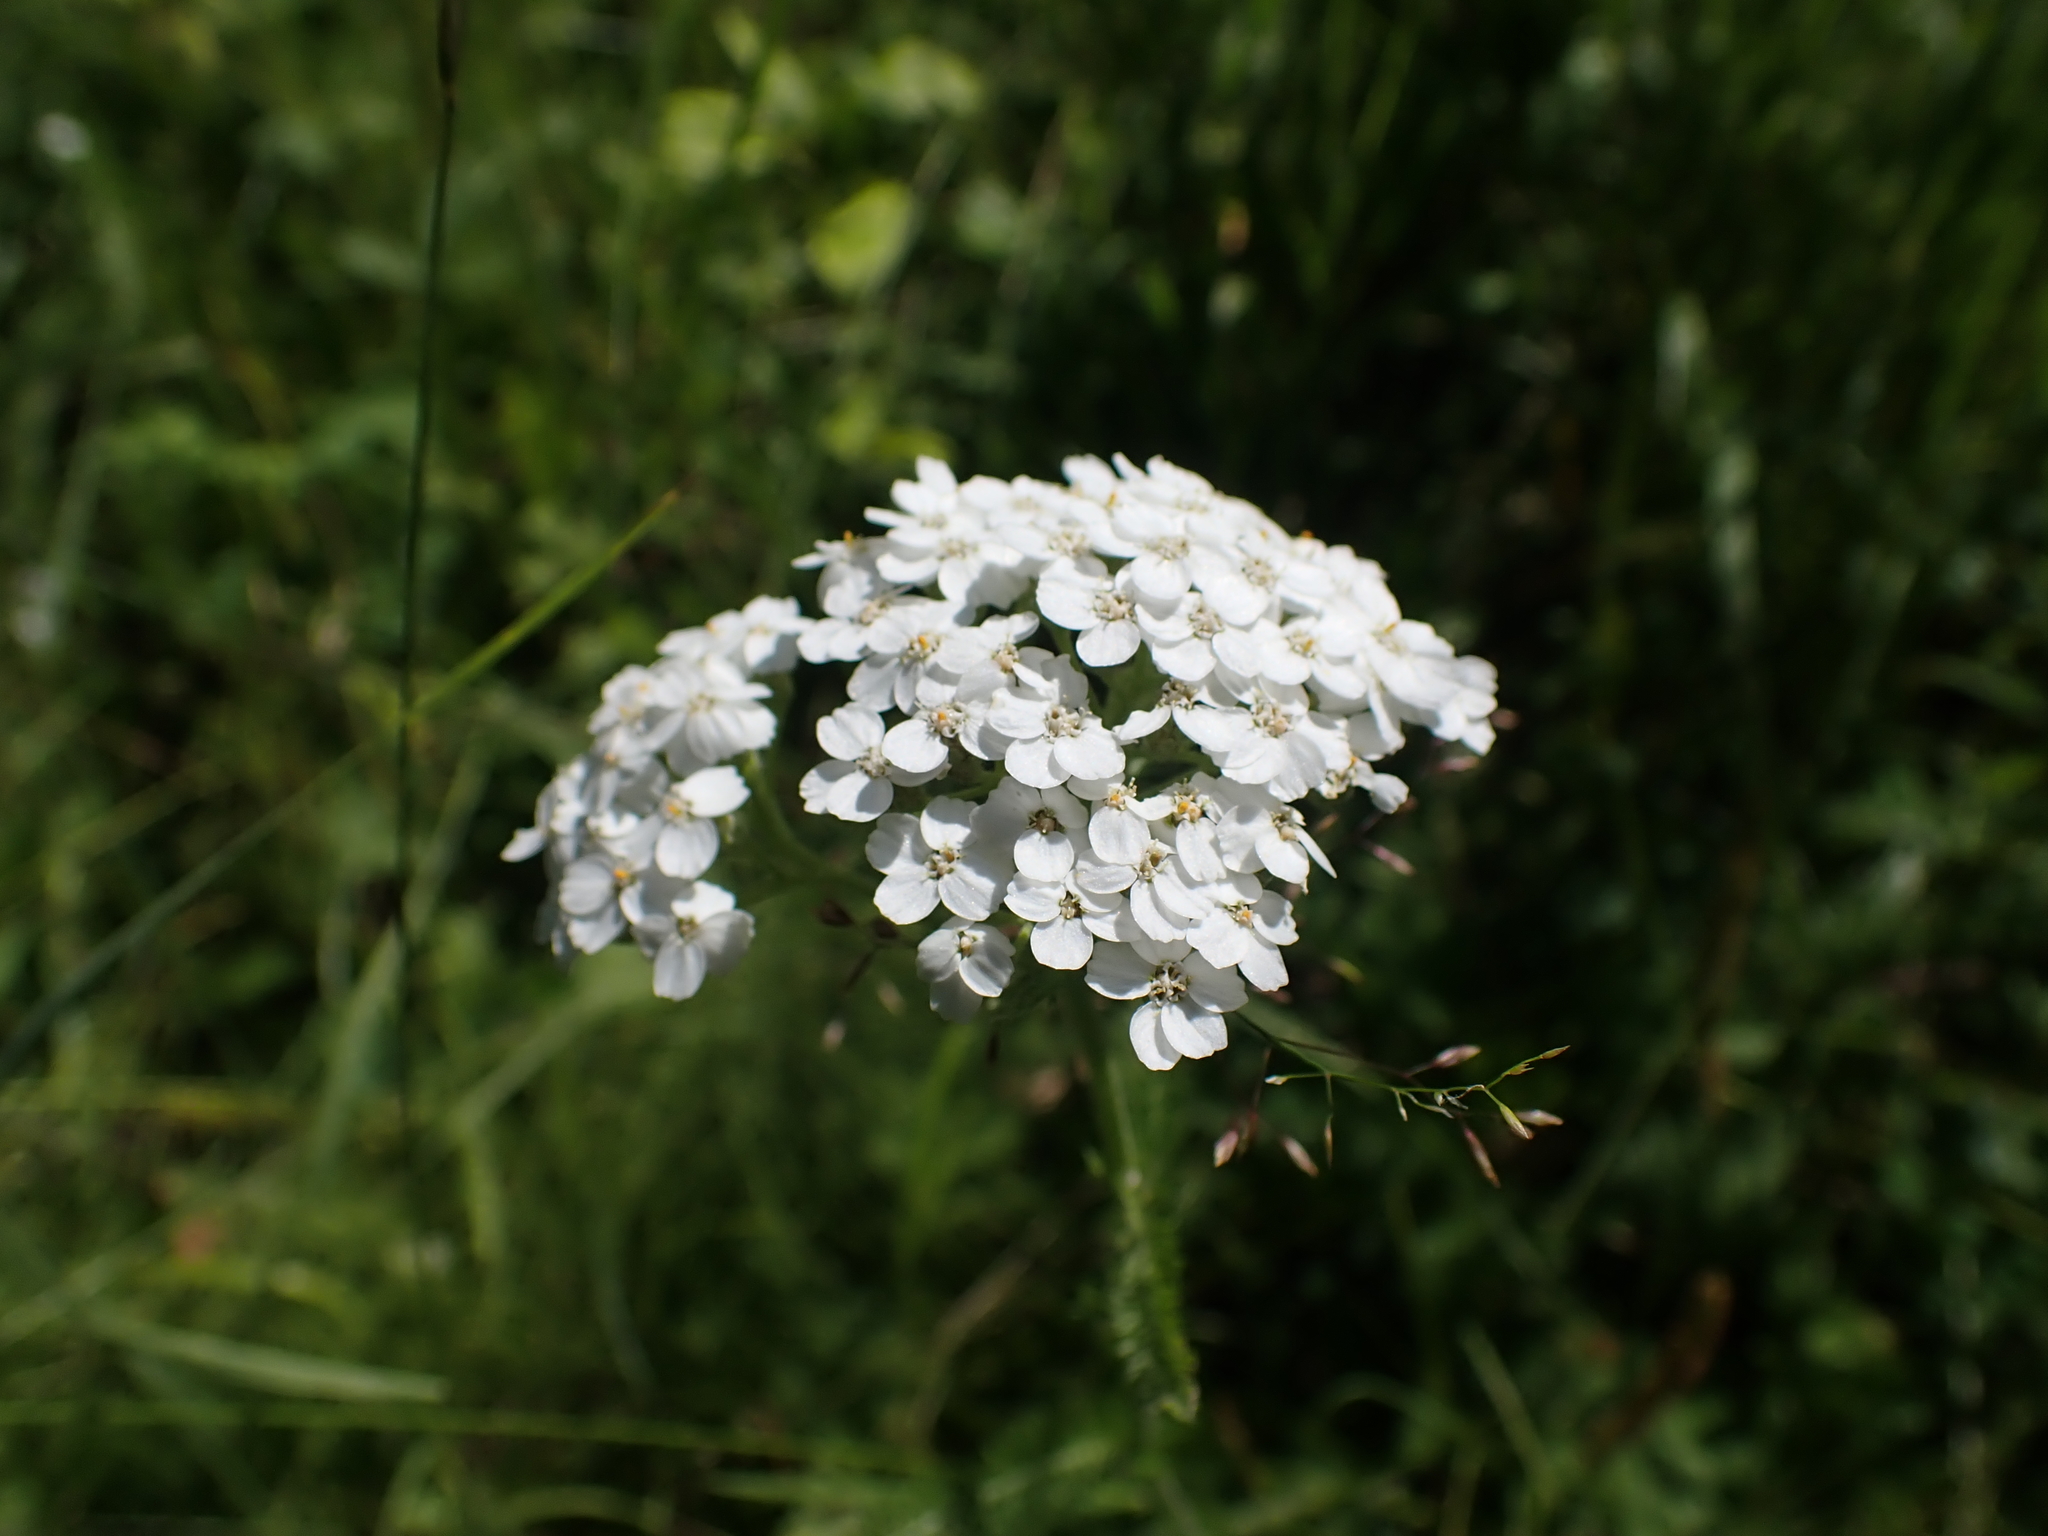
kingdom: Plantae
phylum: Tracheophyta
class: Magnoliopsida
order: Asterales
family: Asteraceae
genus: Achillea
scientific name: Achillea millefolium
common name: Yarrow
